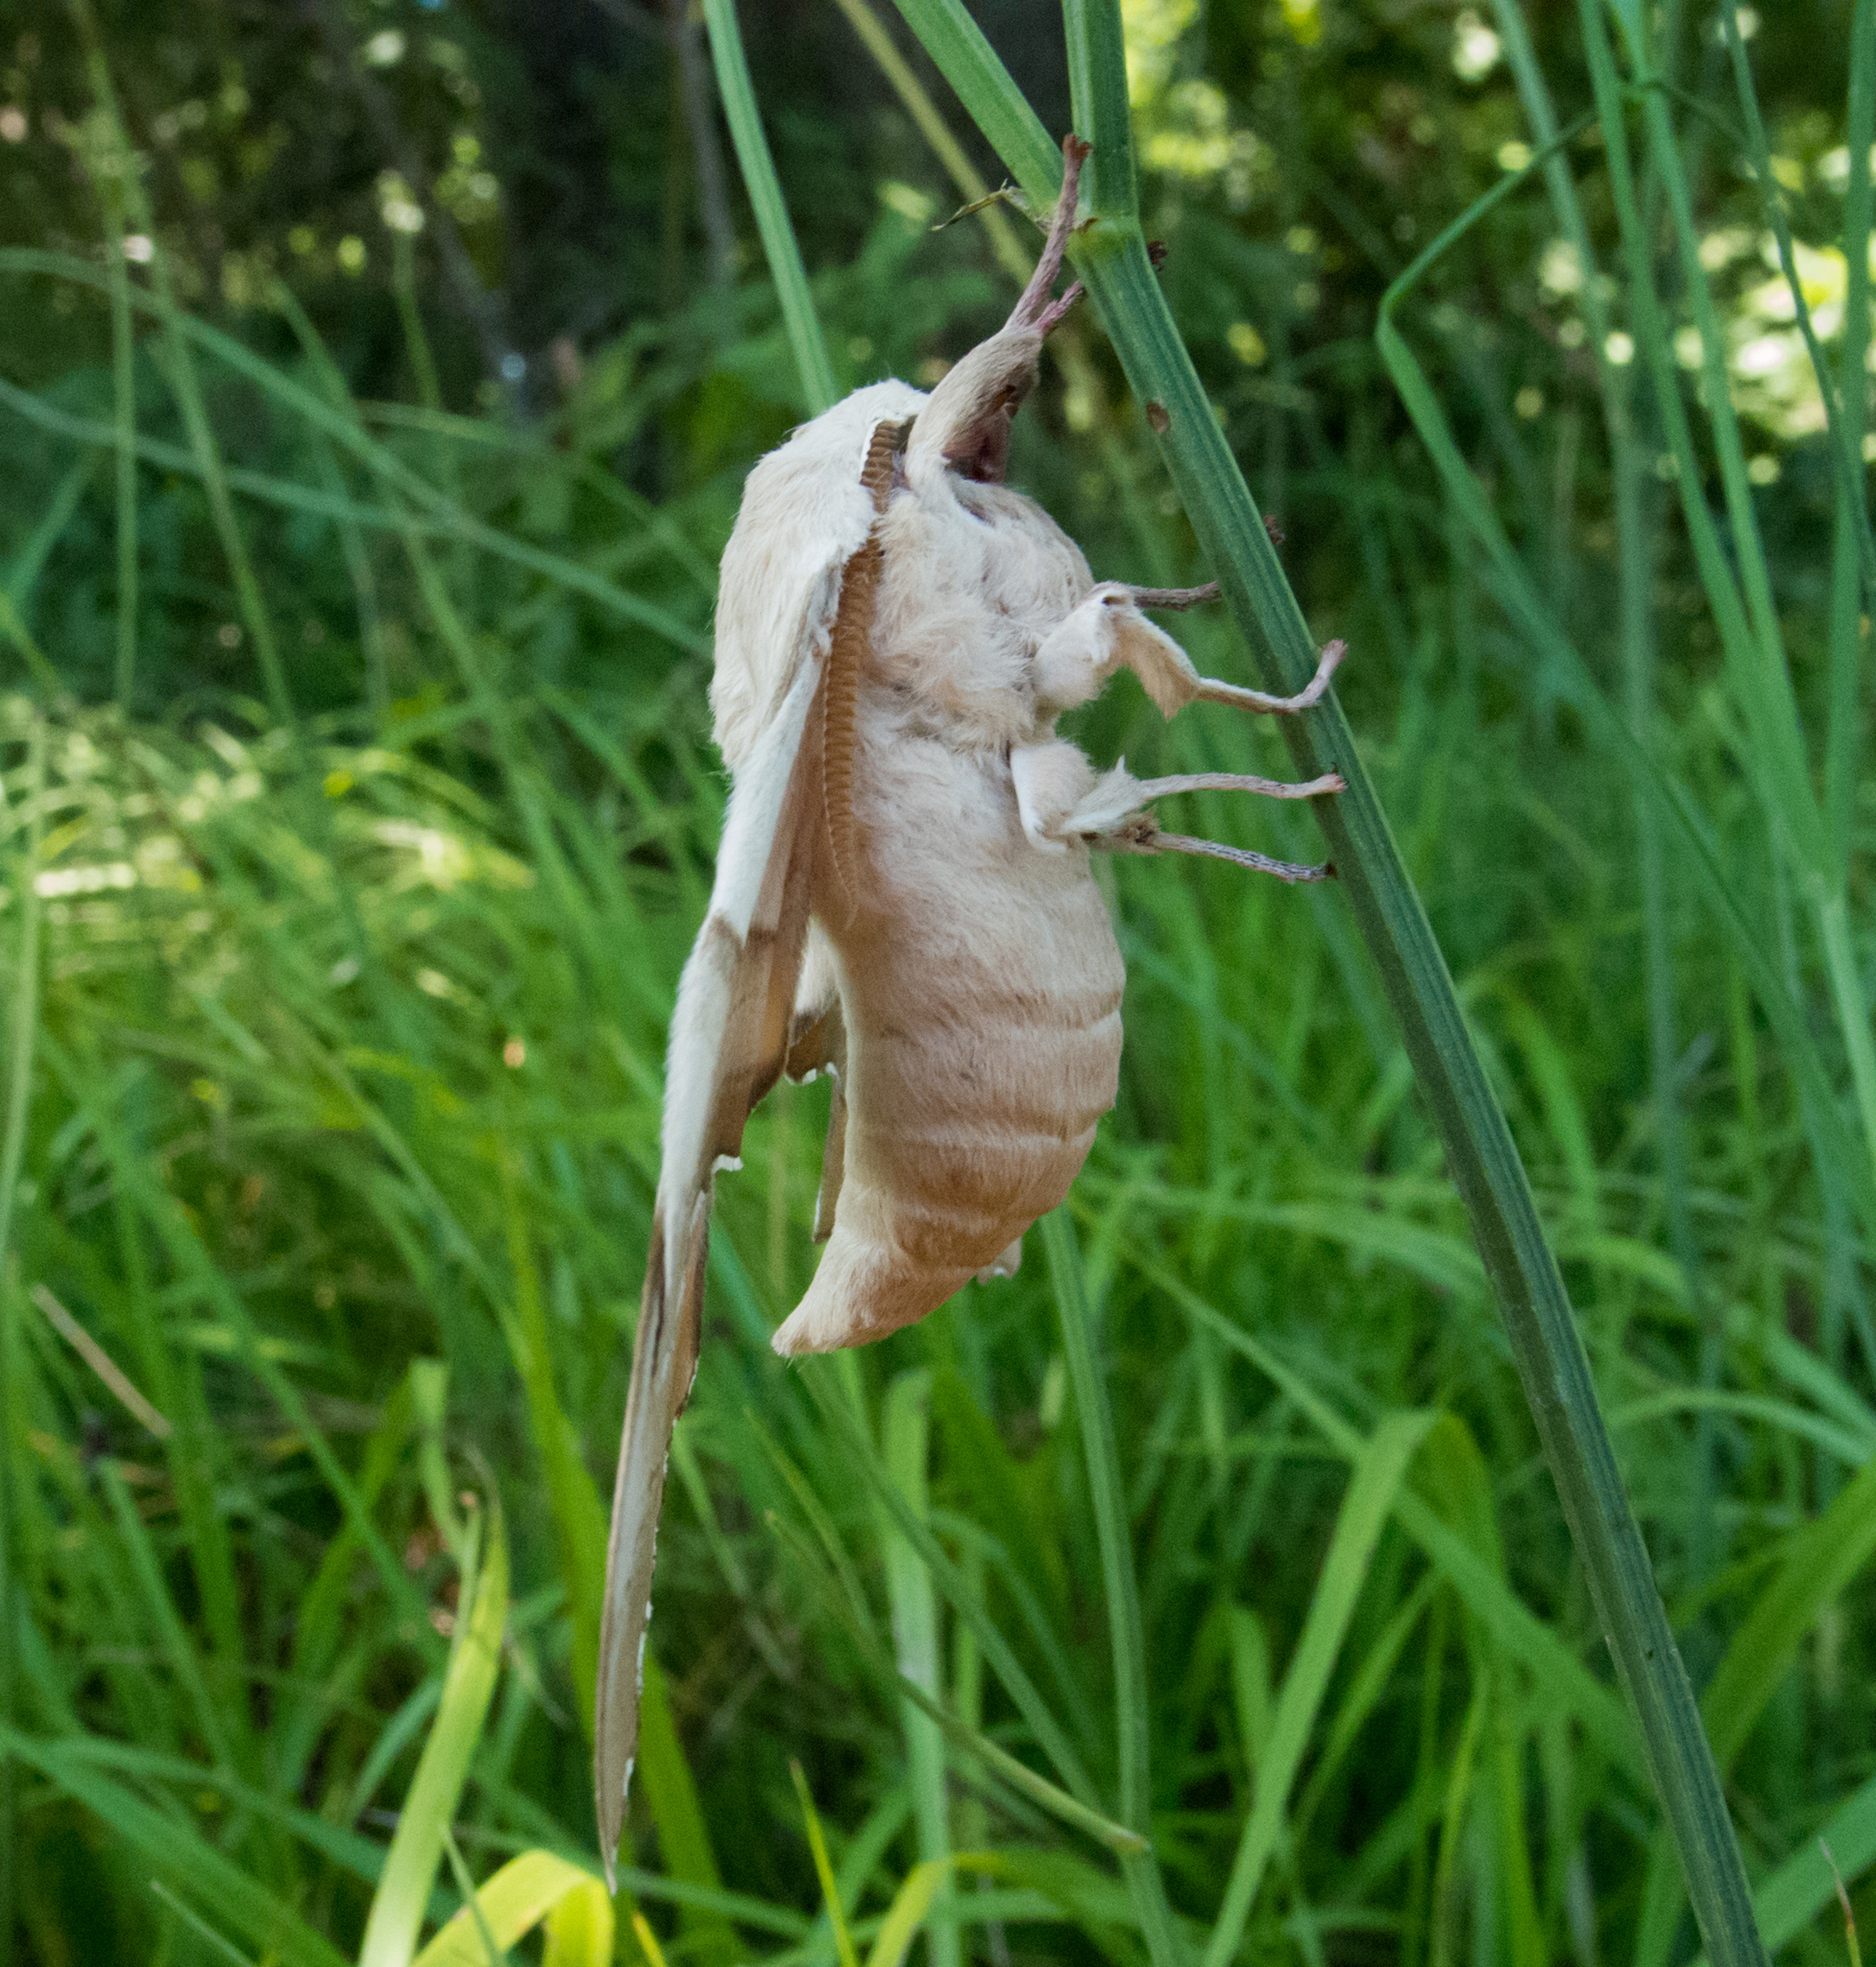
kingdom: Animalia
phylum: Arthropoda
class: Insecta
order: Lepidoptera
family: Sphingidae
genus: Marumba
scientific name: Marumba quercus
